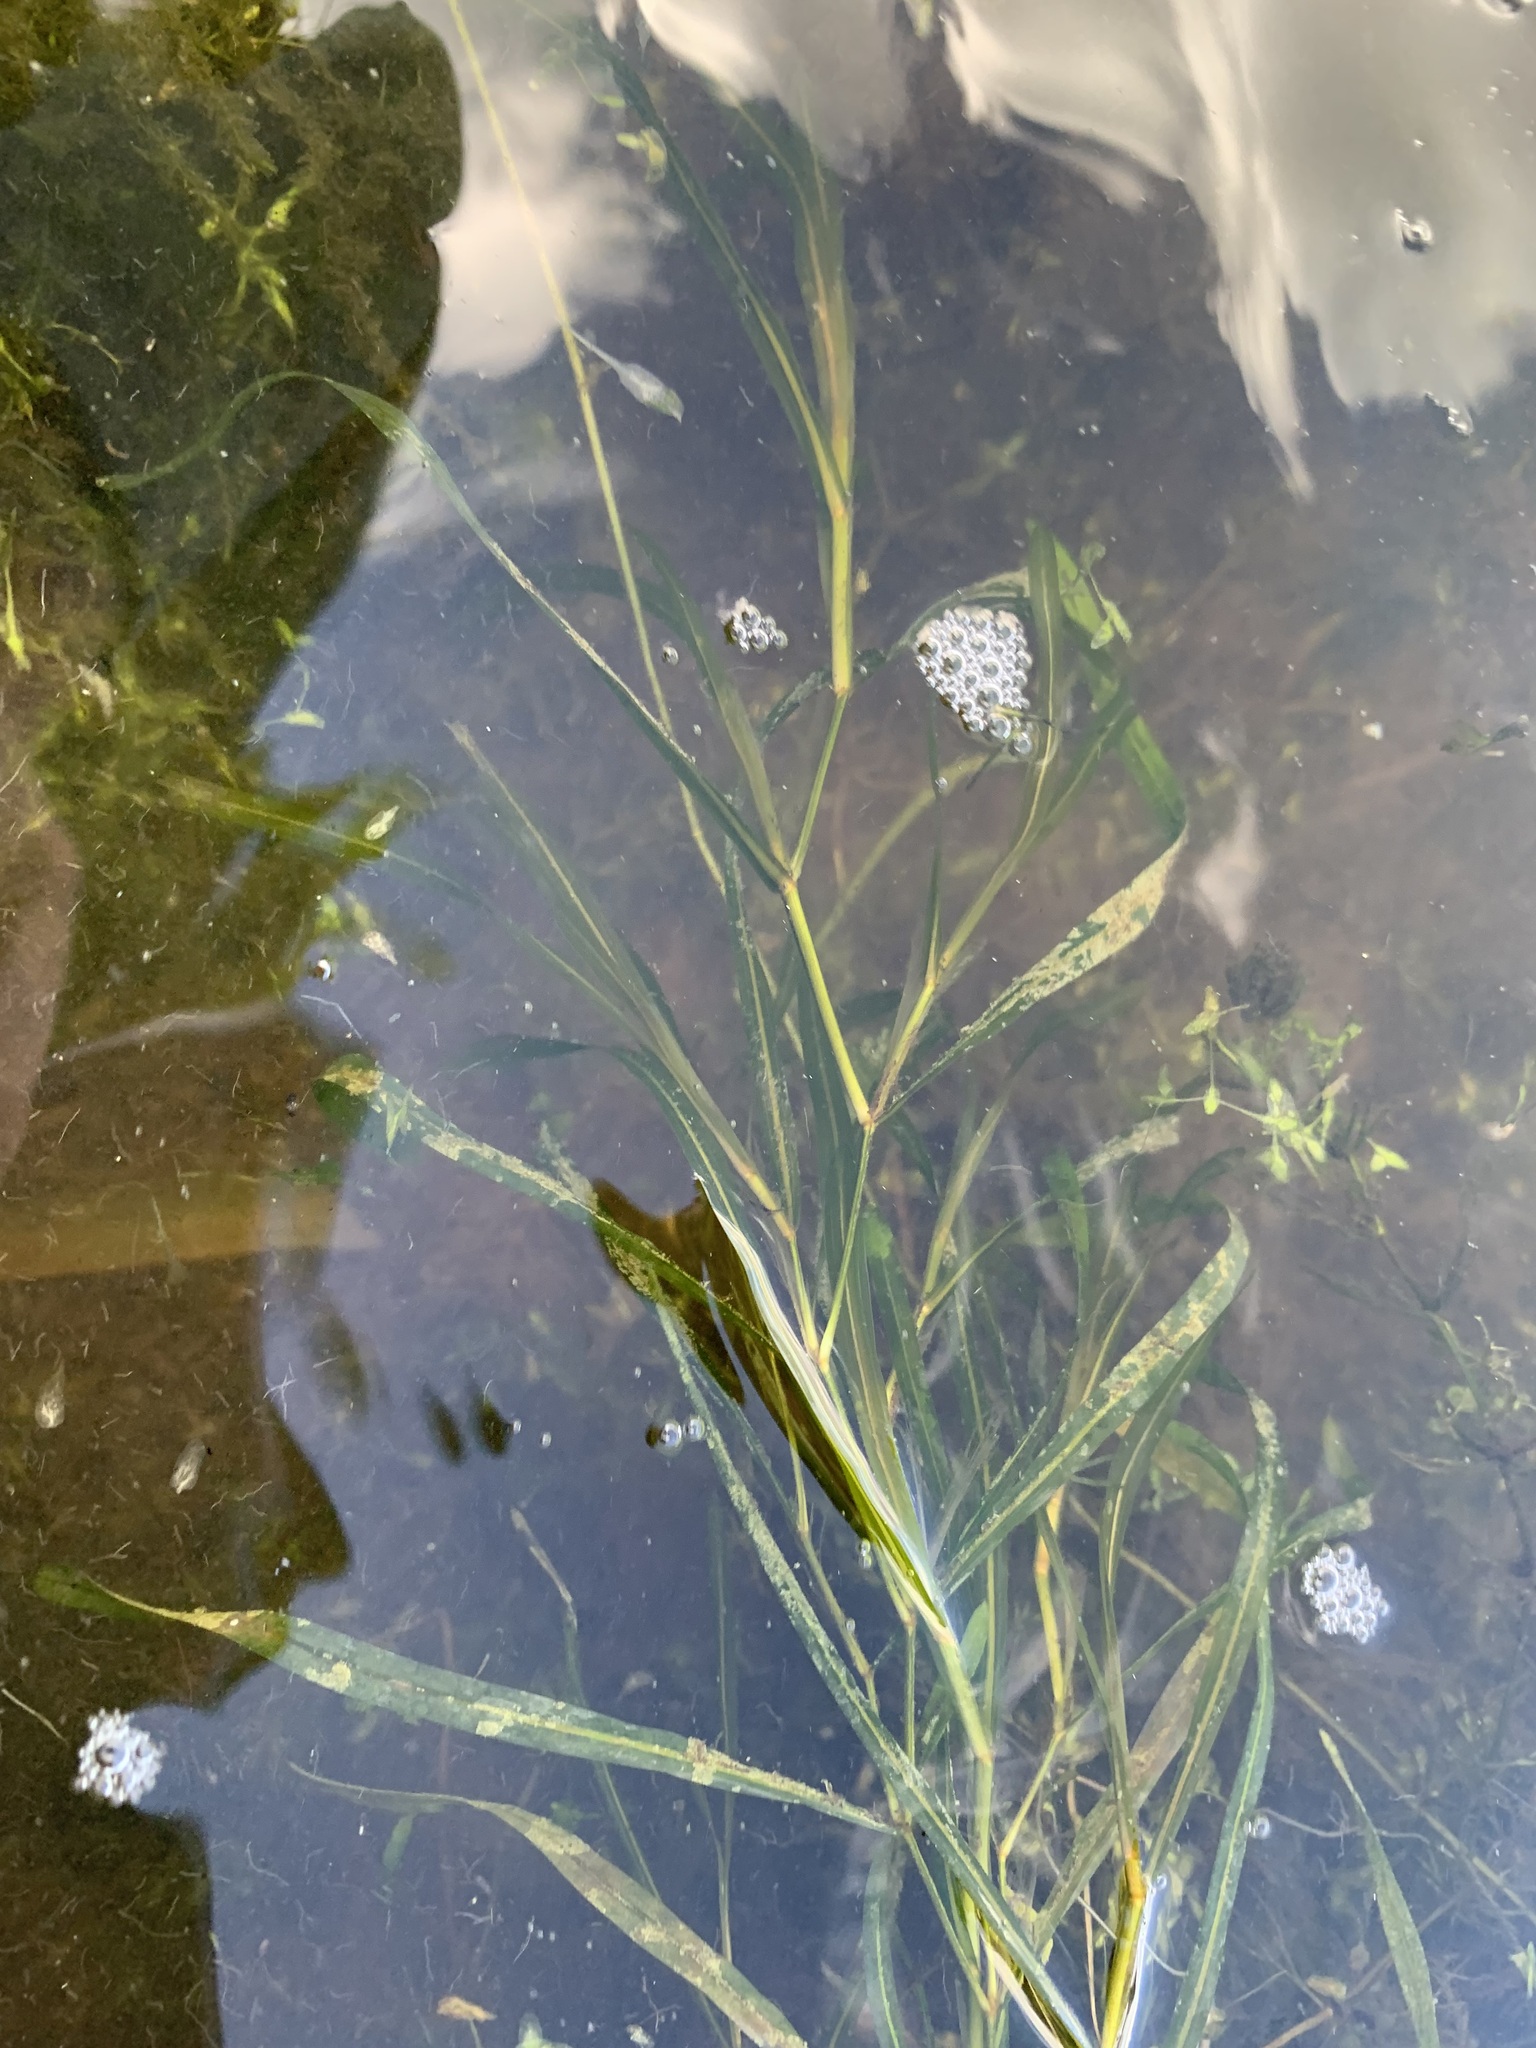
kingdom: Plantae
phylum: Tracheophyta
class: Liliopsida
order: Alismatales
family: Potamogetonaceae
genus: Potamogeton
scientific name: Potamogeton praelongus
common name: Long-stalked pondweed
